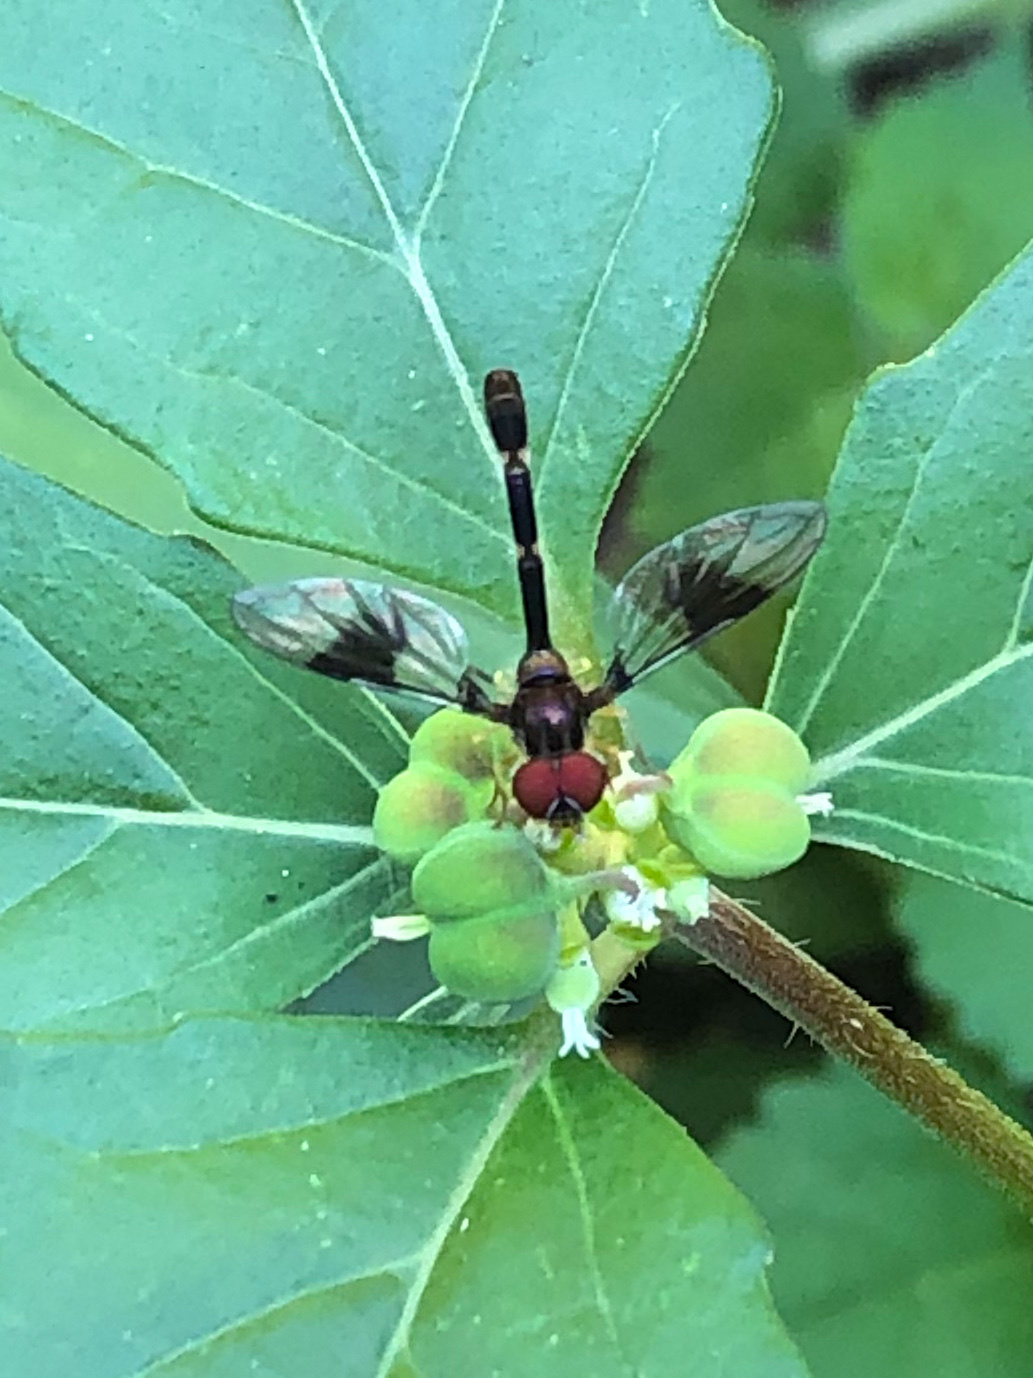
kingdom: Animalia
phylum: Arthropoda
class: Insecta
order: Diptera
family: Syrphidae
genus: Hypocritanus
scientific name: Hypocritanus fascipennis
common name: Eastern band-winged hover fly
